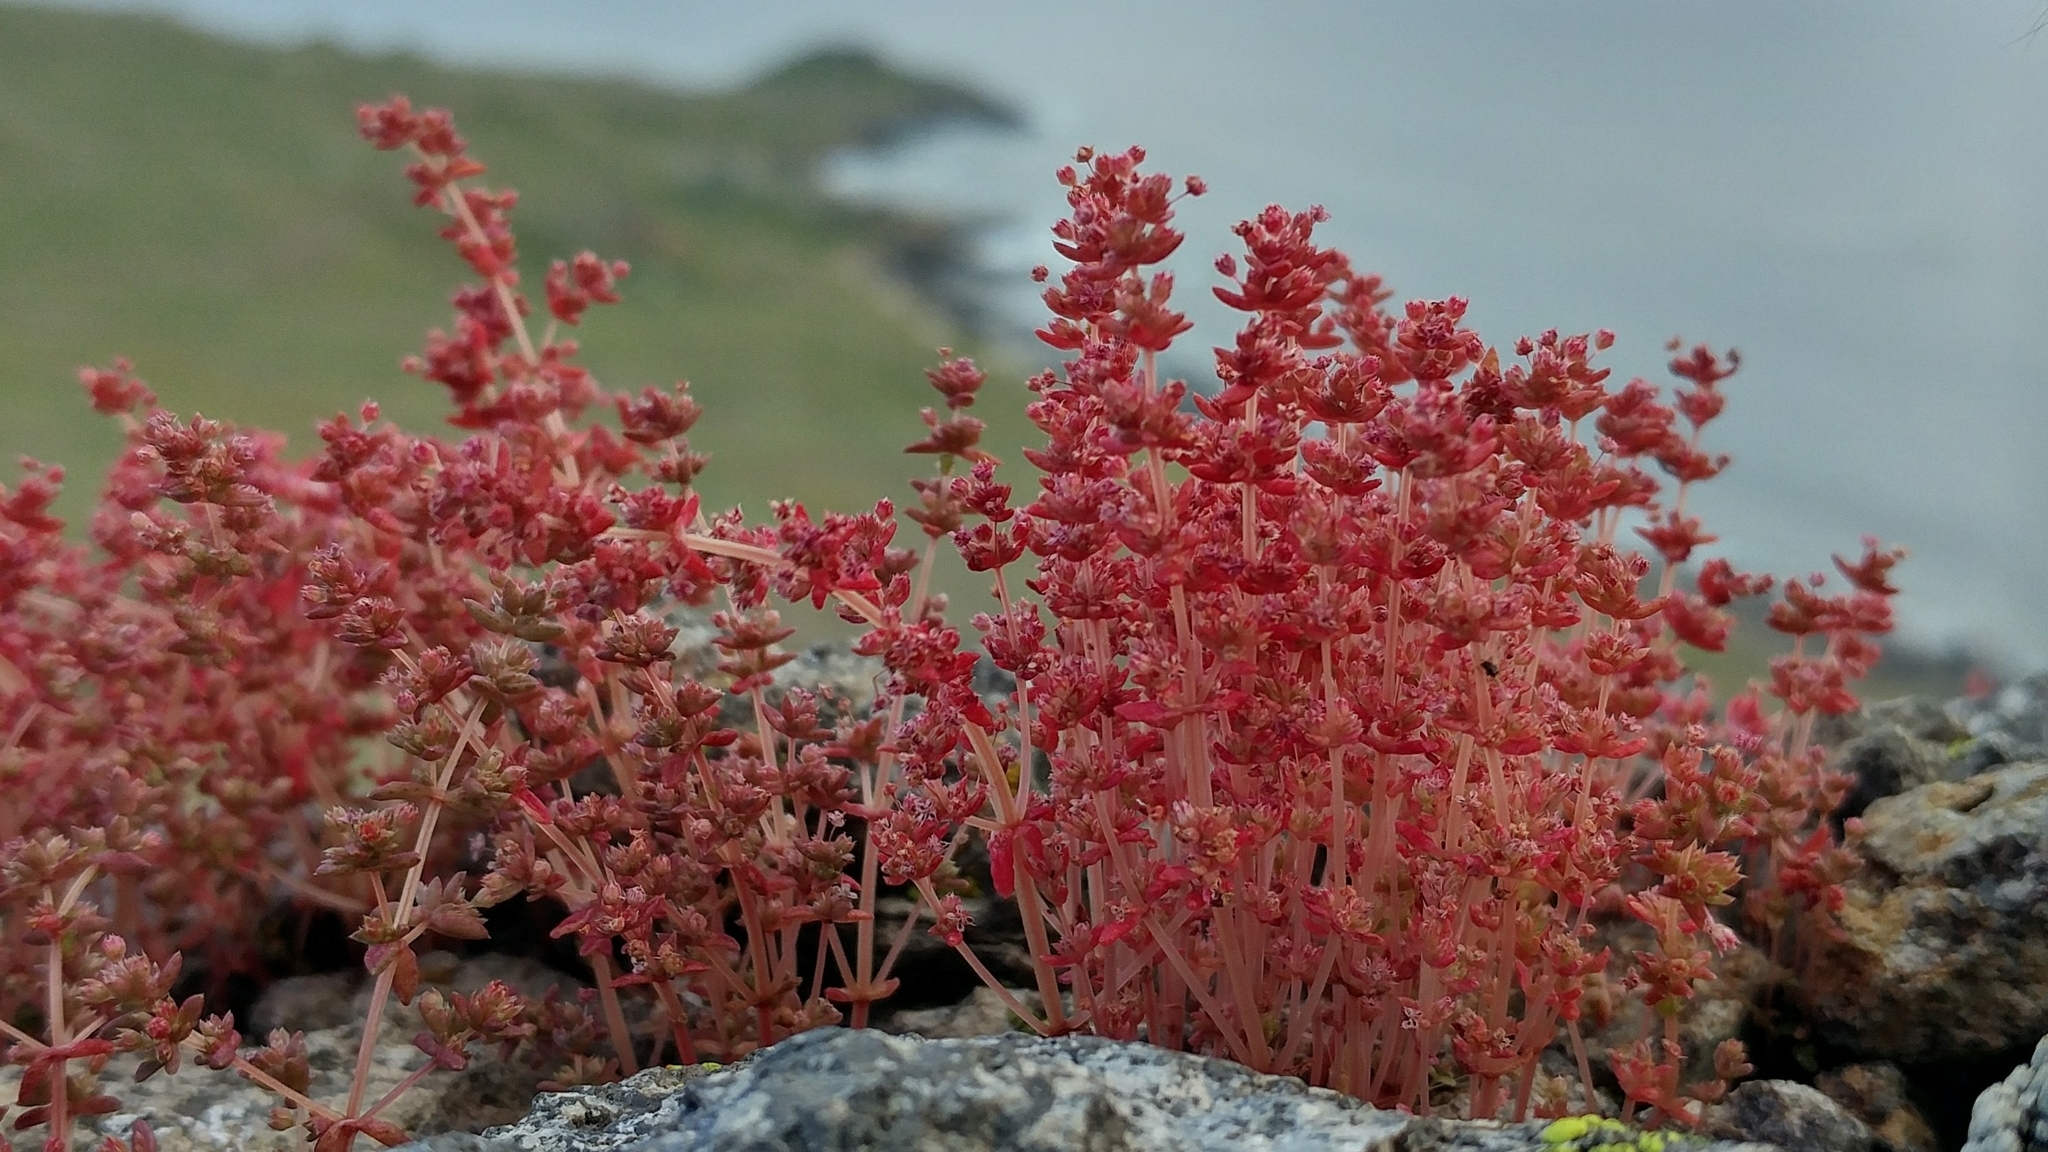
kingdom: Plantae
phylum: Tracheophyta
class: Magnoliopsida
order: Saxifragales
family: Crassulaceae
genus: Crassula
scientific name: Crassula connata
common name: Erect pygmyweed
